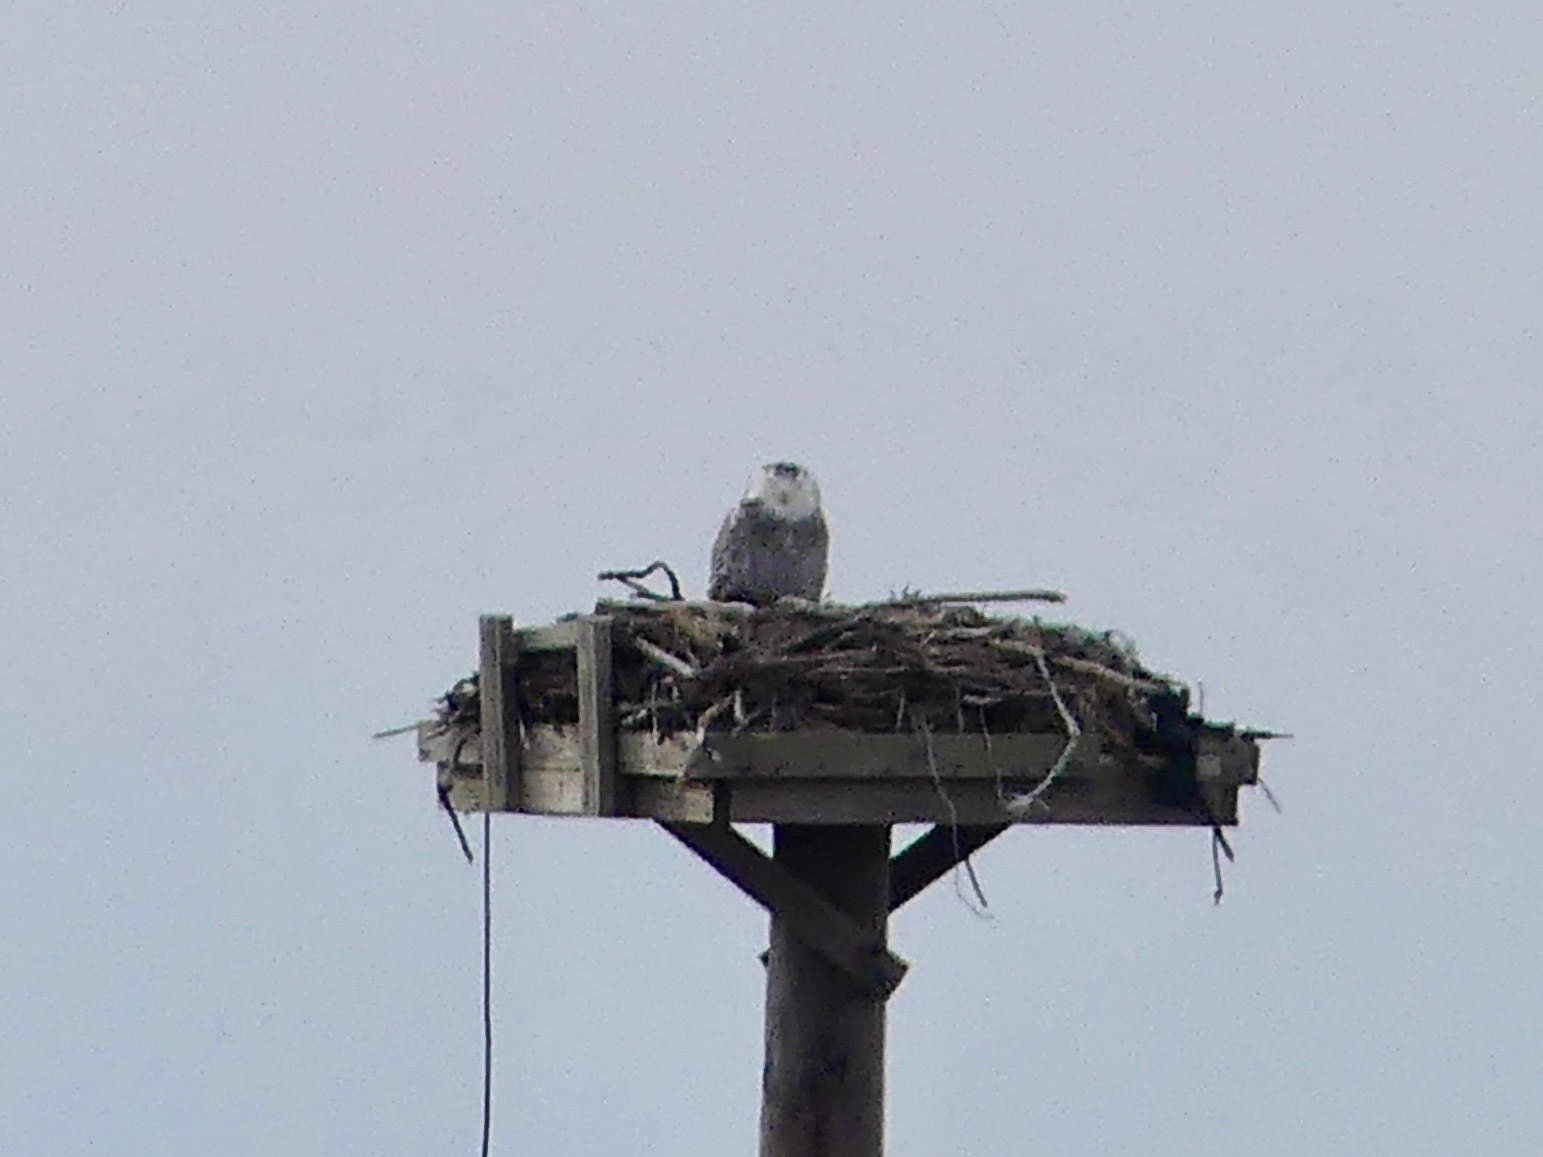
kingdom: Animalia
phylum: Chordata
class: Aves
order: Strigiformes
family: Strigidae
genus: Bubo
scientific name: Bubo scandiacus
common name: Snowy owl
